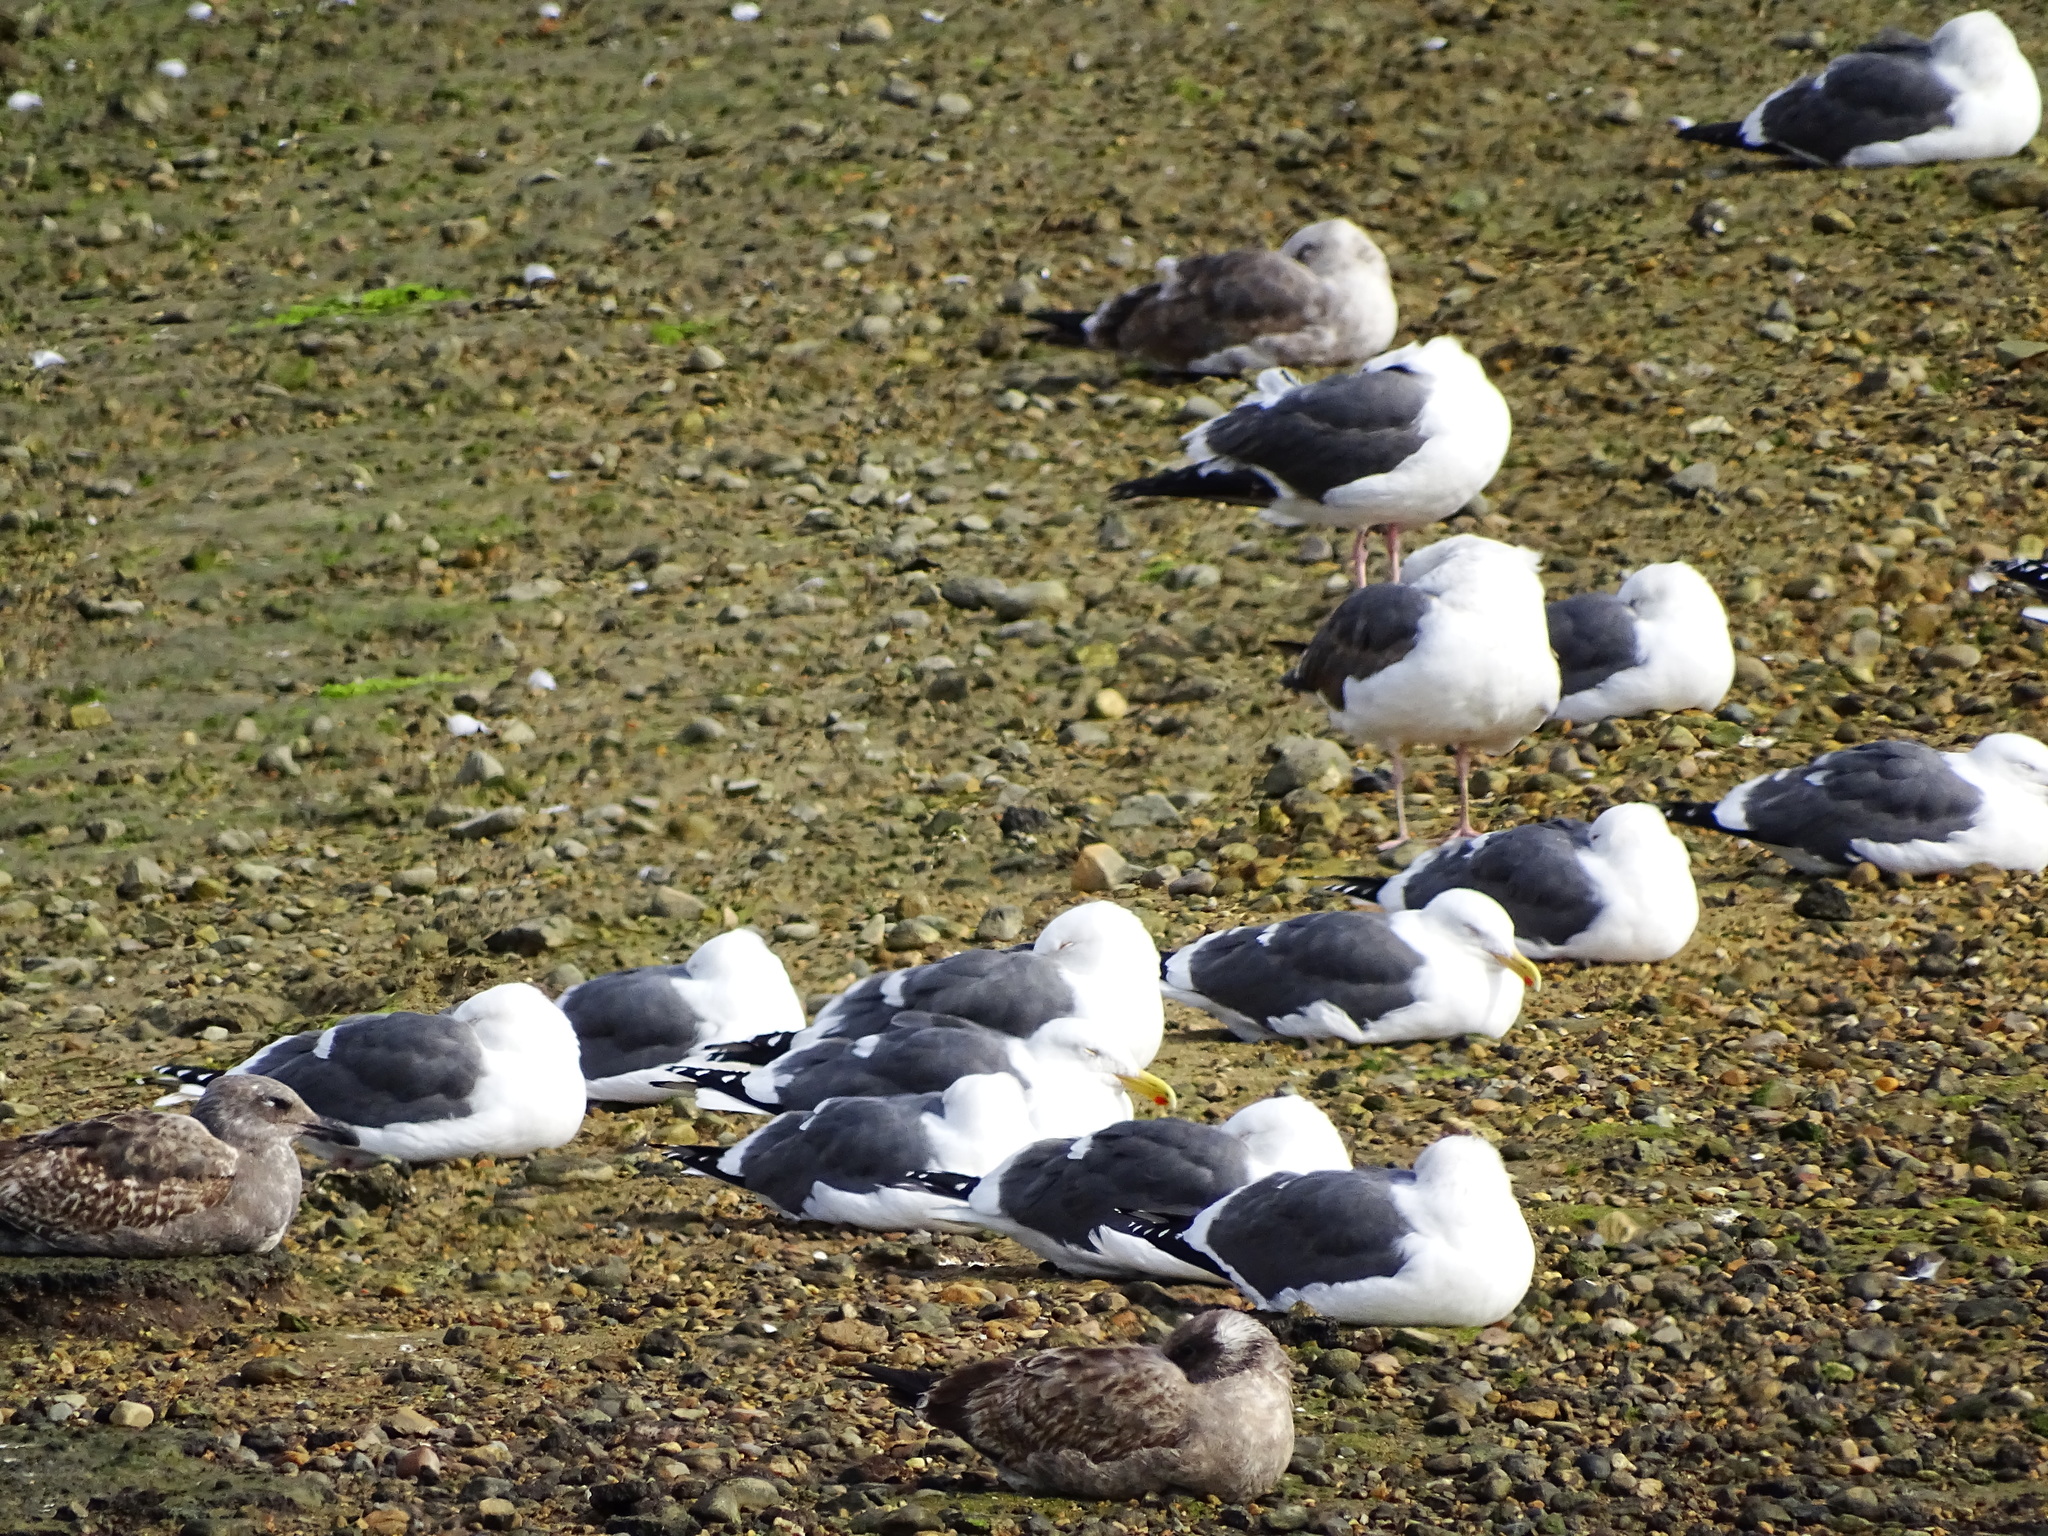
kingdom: Animalia
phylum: Chordata
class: Aves
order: Charadriiformes
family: Laridae
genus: Larus
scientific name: Larus occidentalis
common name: Western gull
